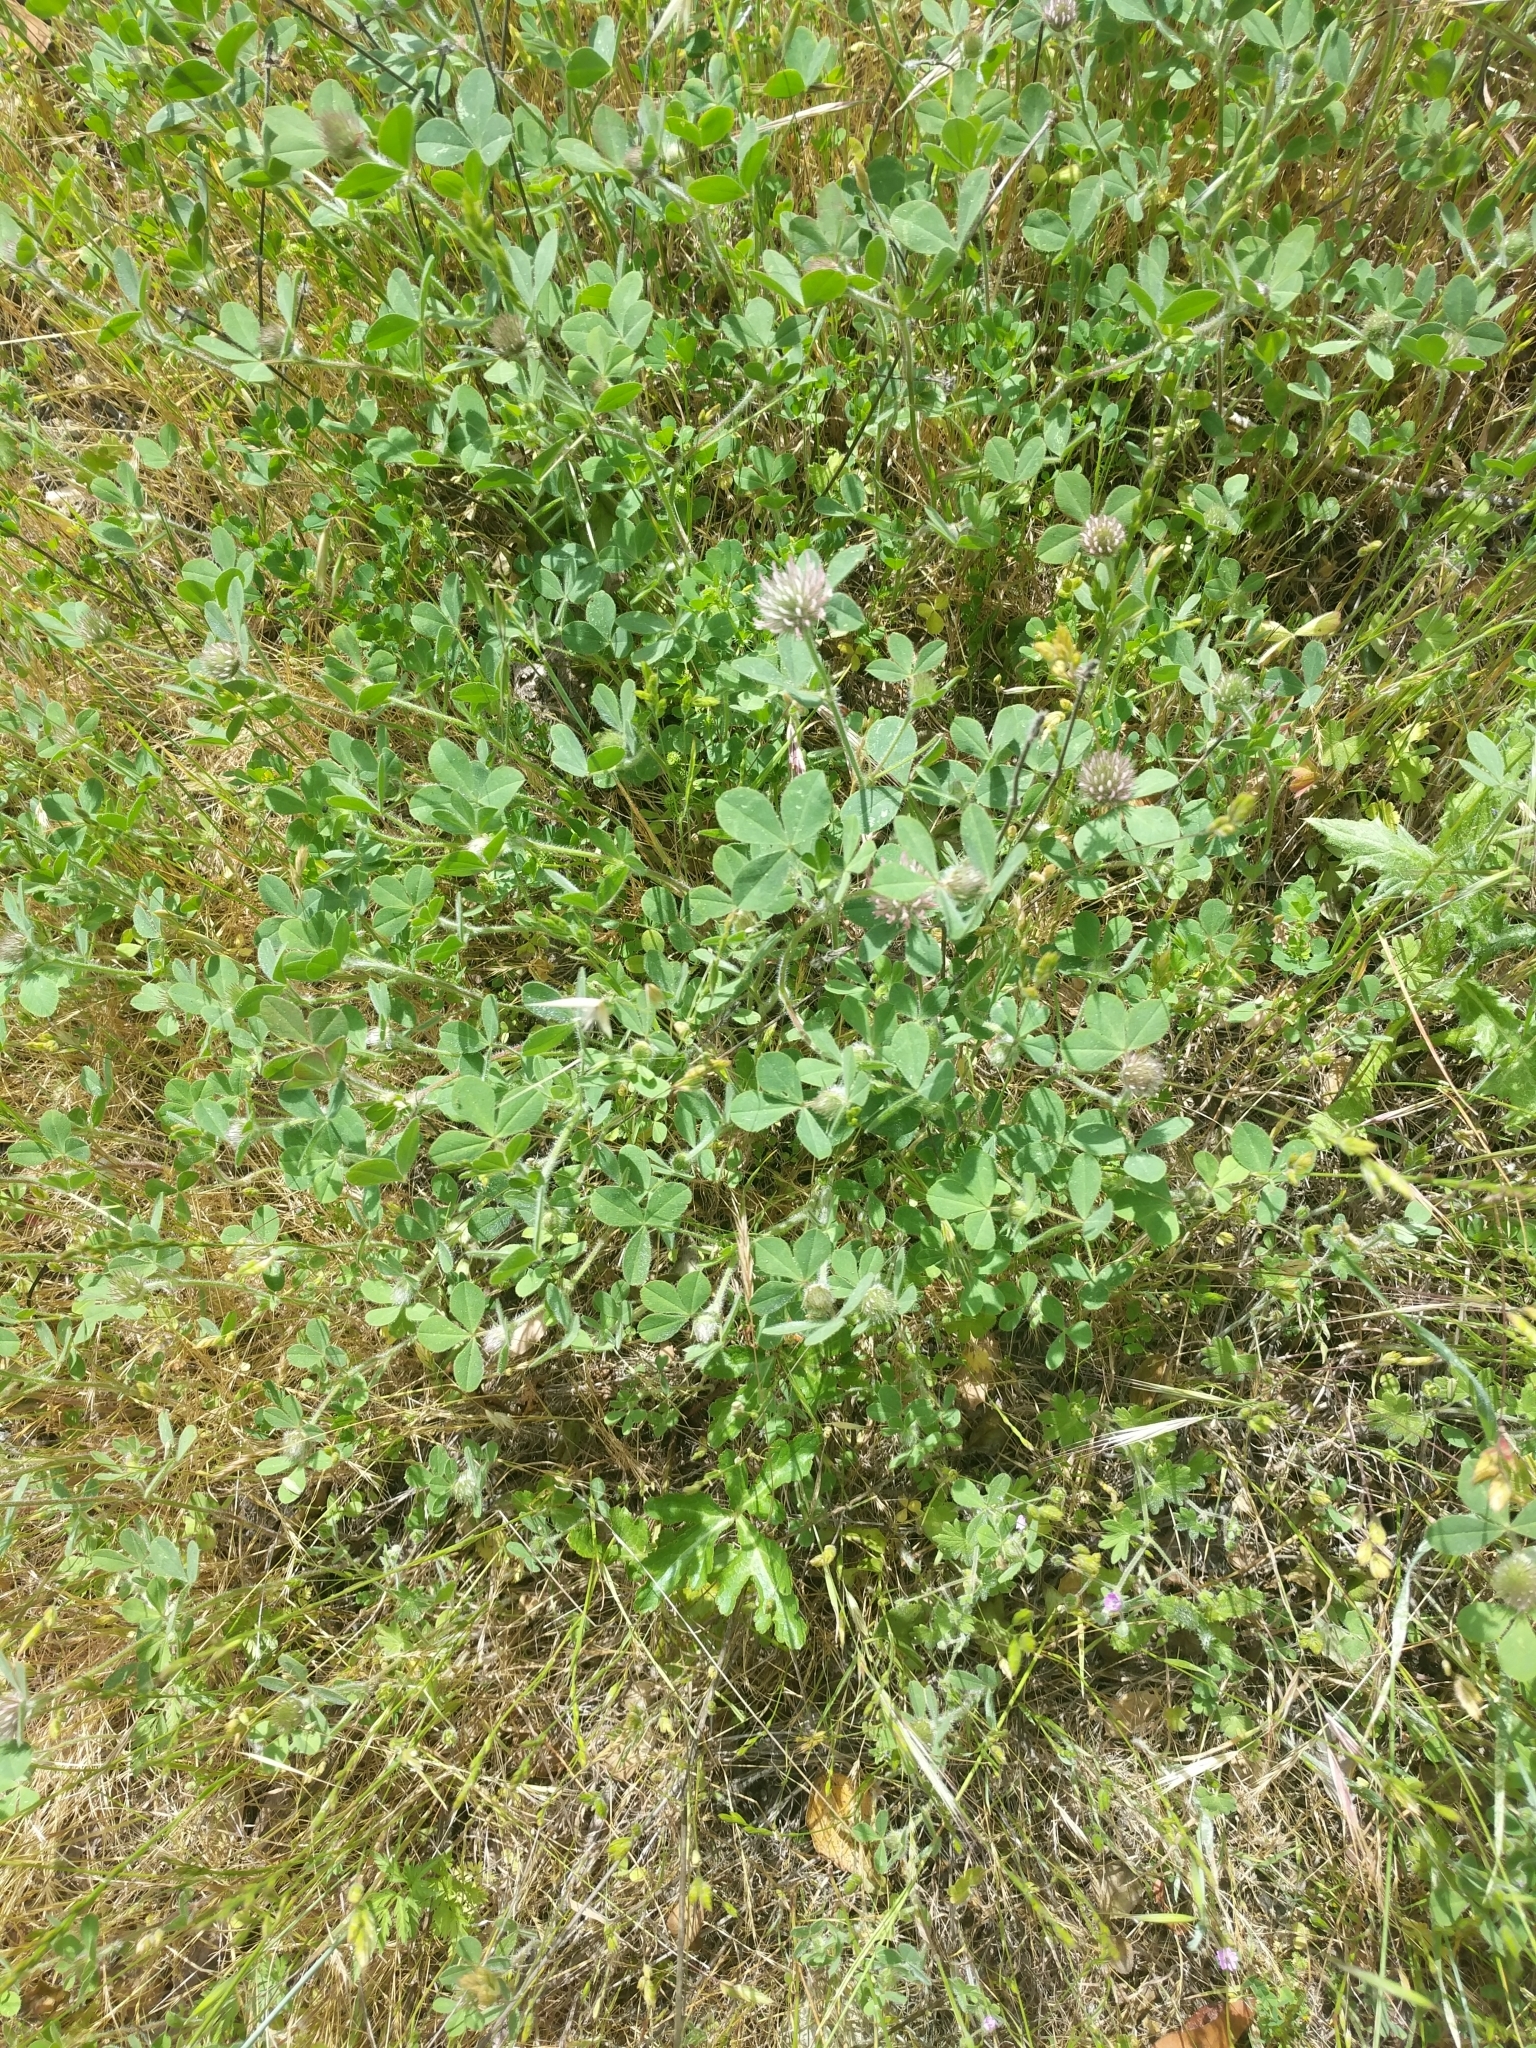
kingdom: Plantae
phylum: Tracheophyta
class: Magnoliopsida
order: Fabales
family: Fabaceae
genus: Trifolium
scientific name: Trifolium hirtum
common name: Rose clover
